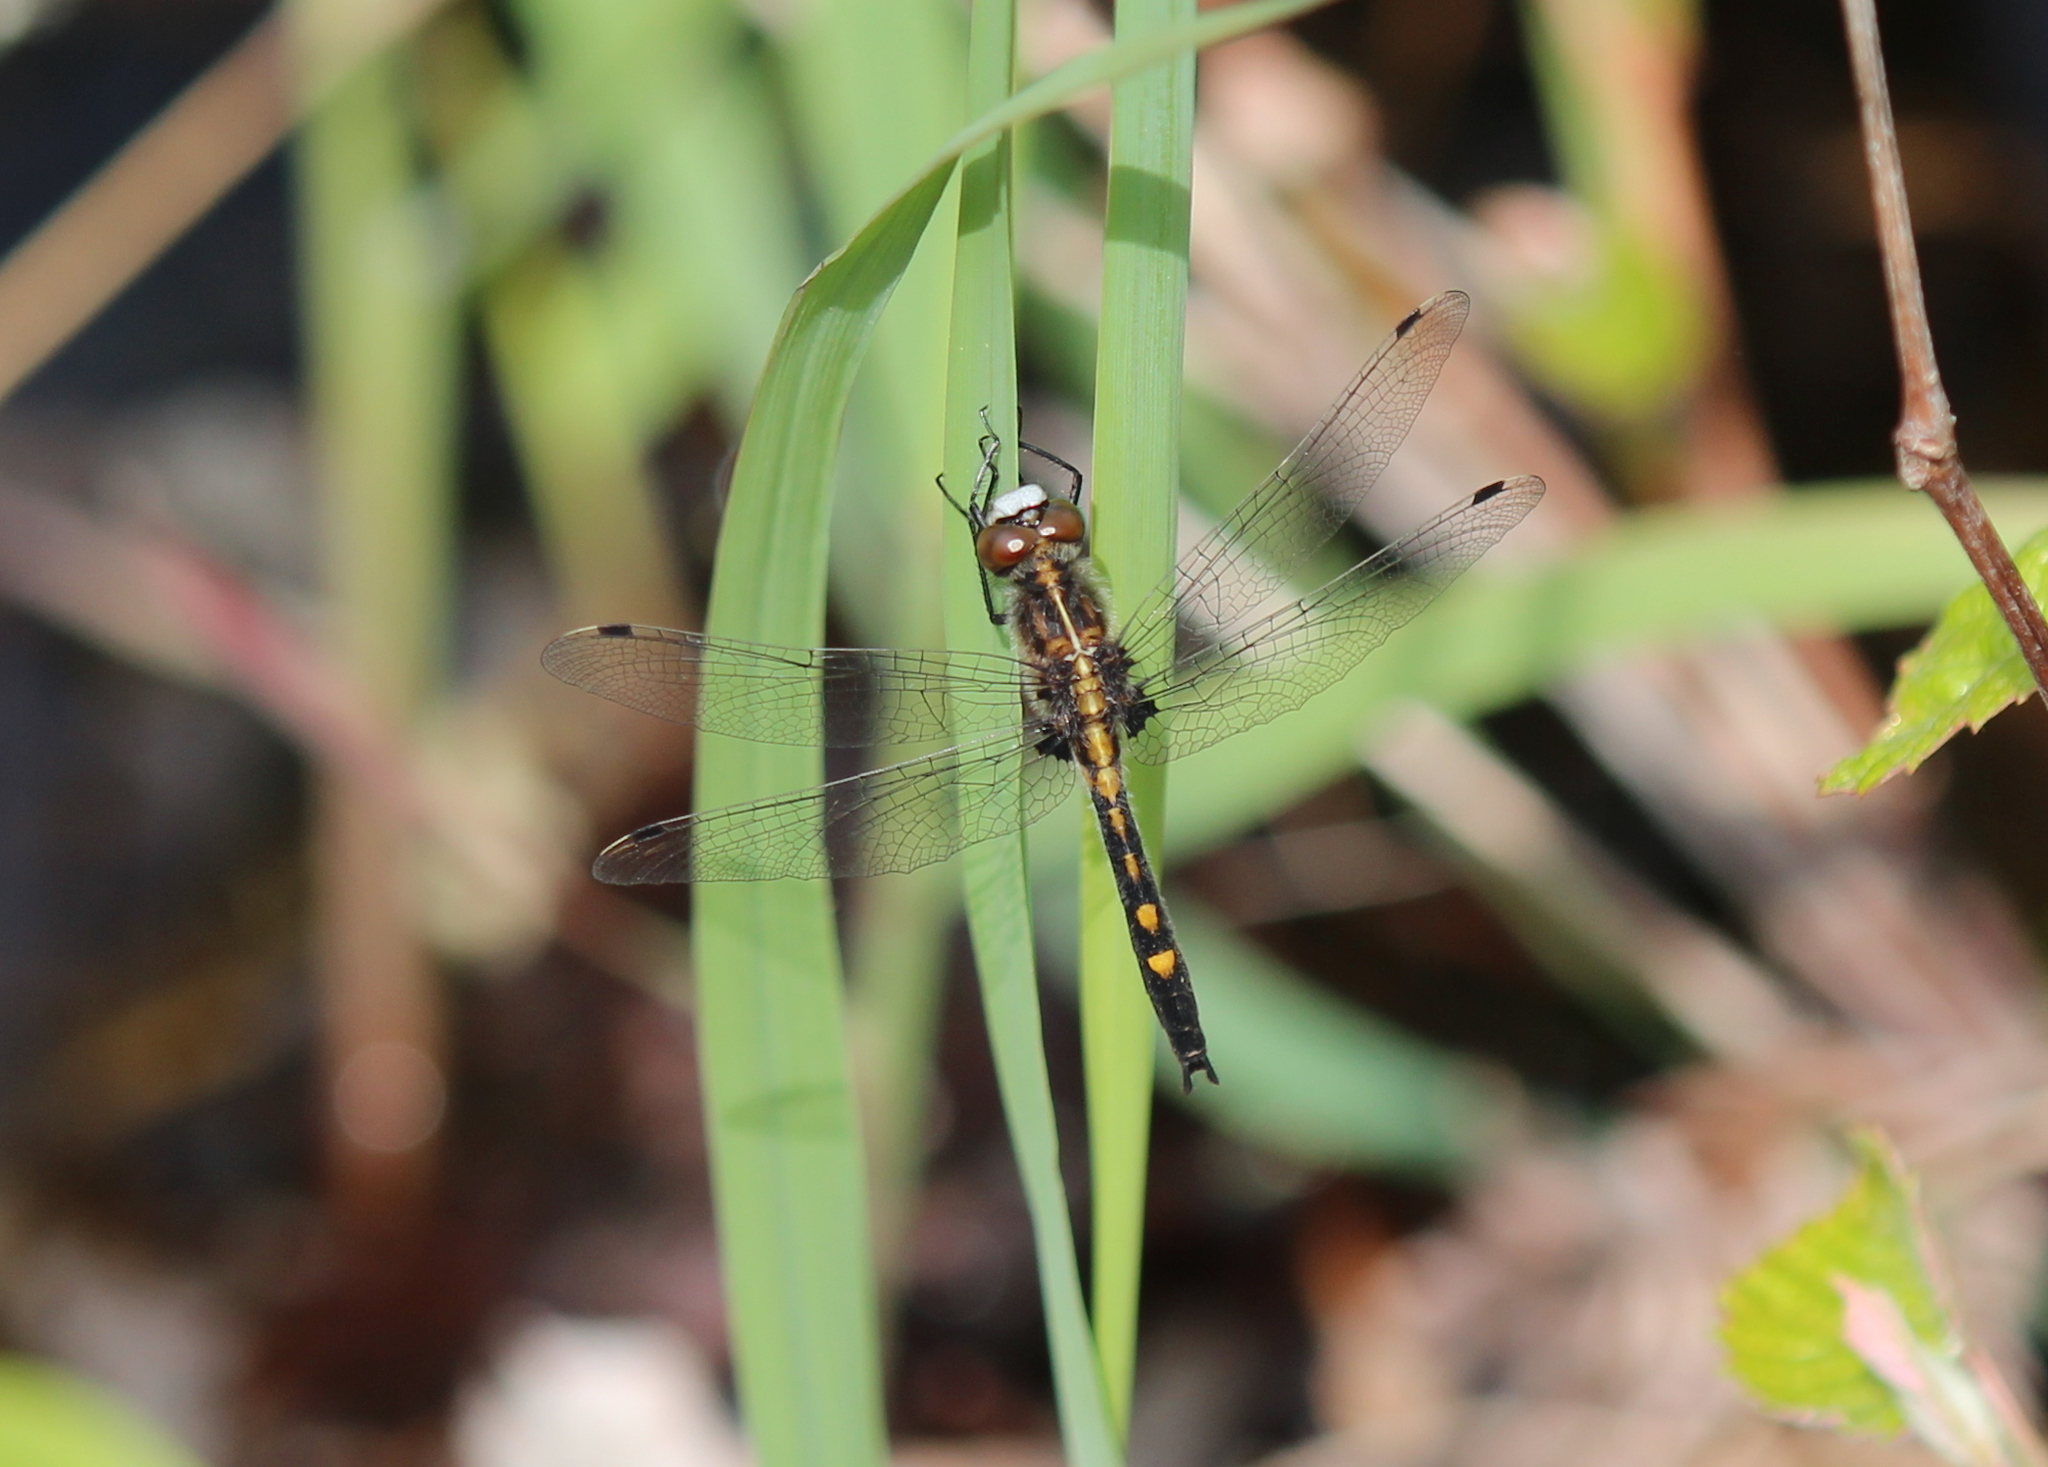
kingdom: Animalia
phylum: Arthropoda
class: Insecta
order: Odonata
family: Libellulidae
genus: Leucorrhinia
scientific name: Leucorrhinia intacta
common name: Dot-tailed whiteface
